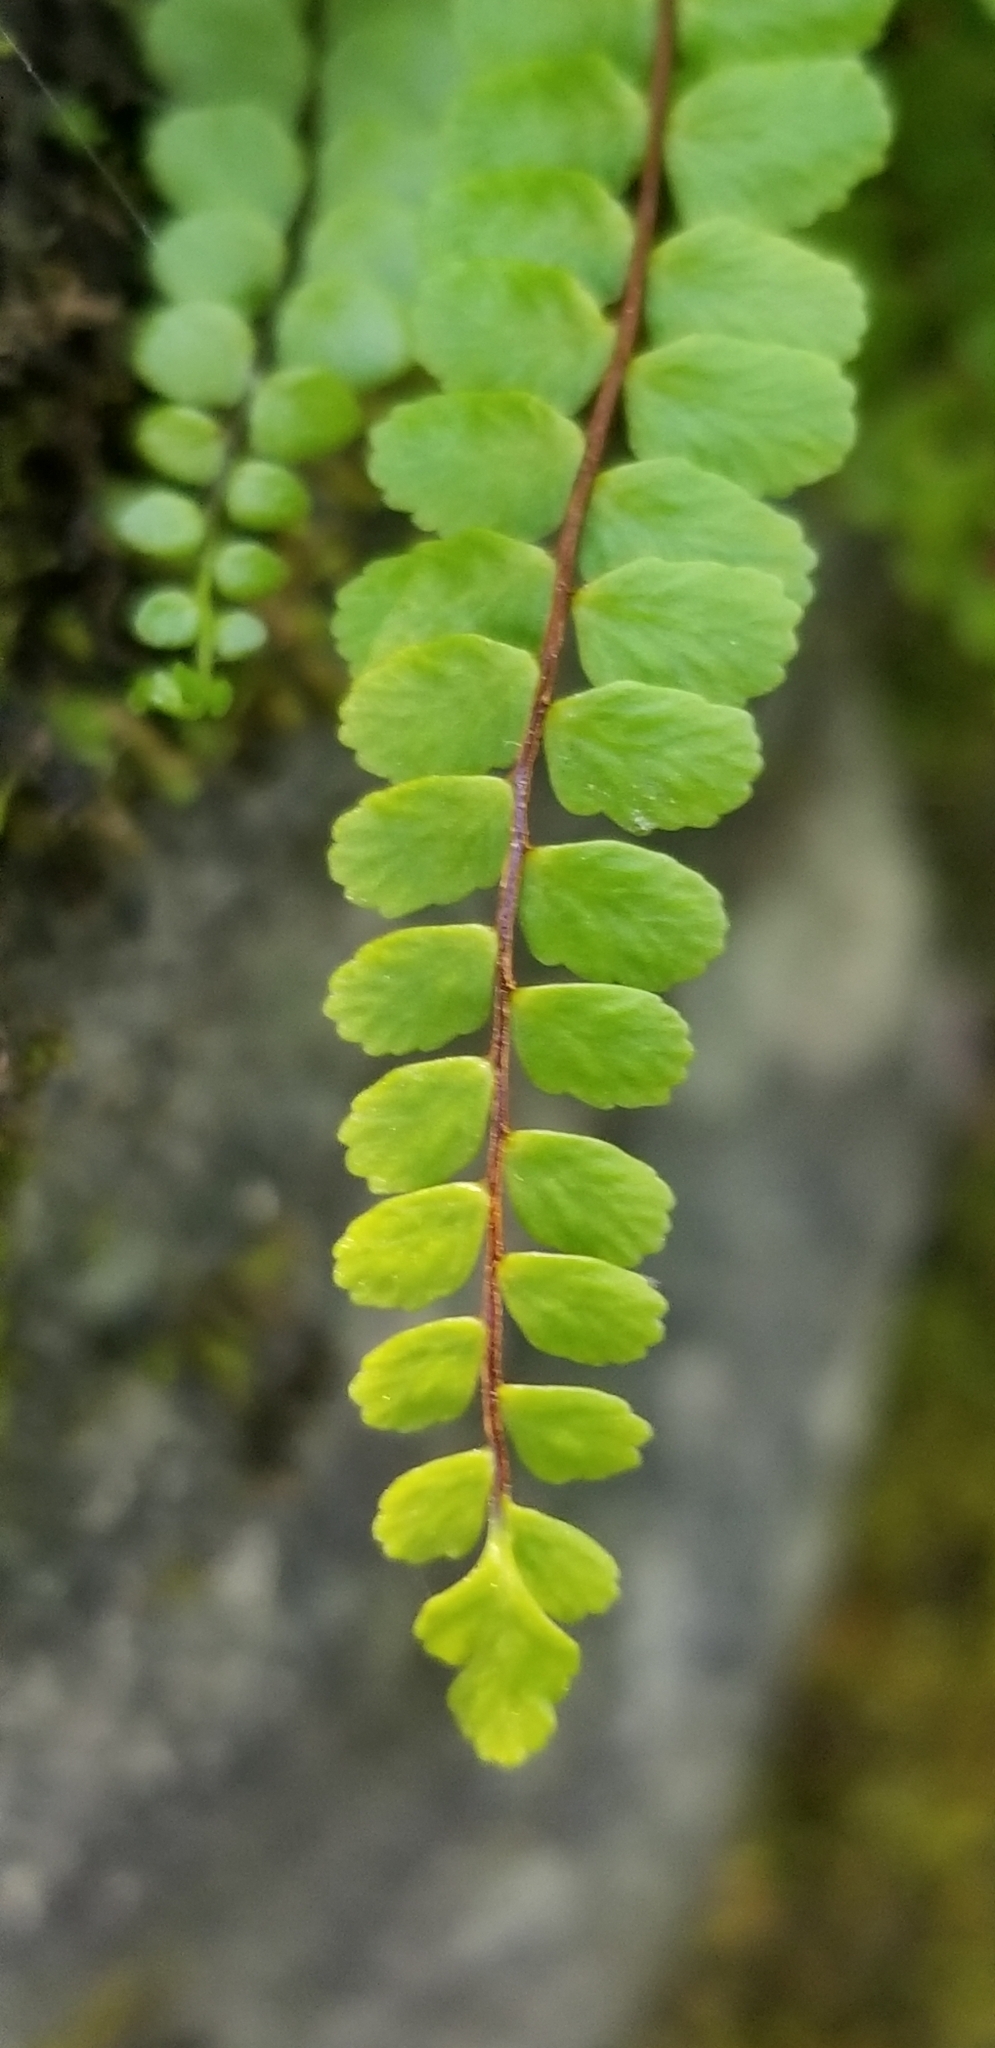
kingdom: Plantae
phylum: Tracheophyta
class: Polypodiopsida
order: Polypodiales
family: Aspleniaceae
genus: Asplenium
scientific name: Asplenium trichomanes
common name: Maidenhair spleenwort
